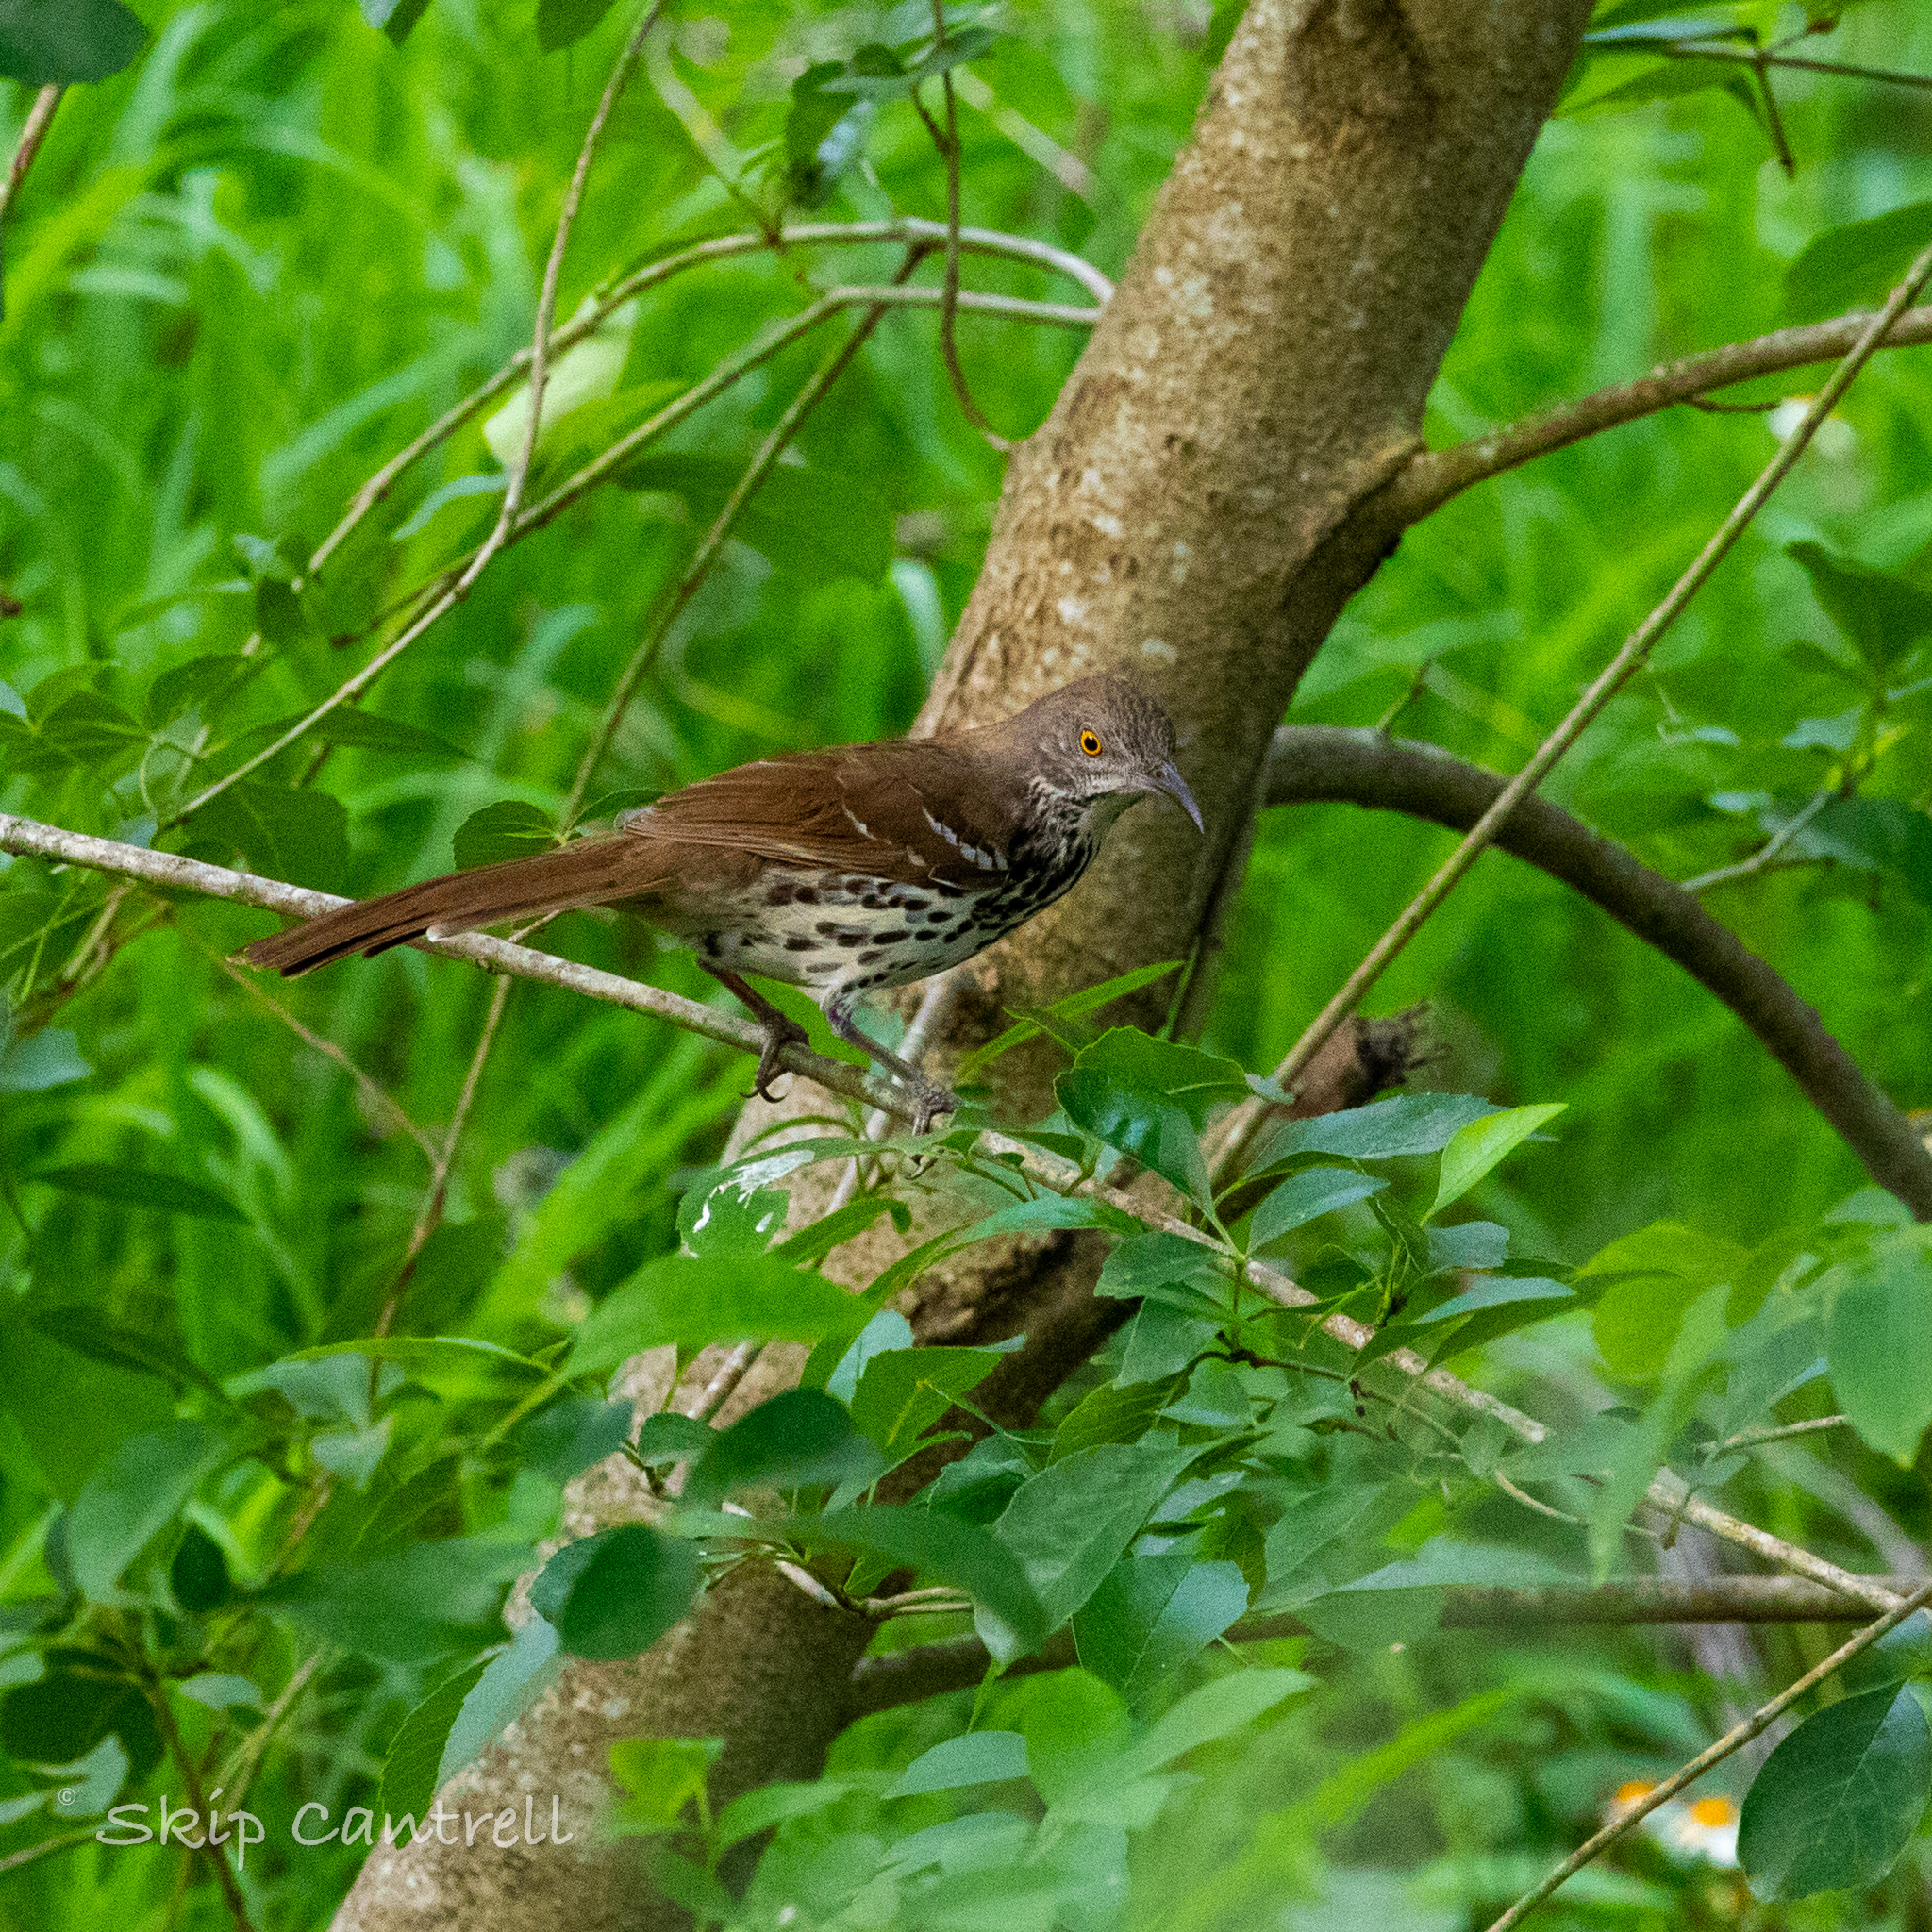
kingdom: Animalia
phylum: Chordata
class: Aves
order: Passeriformes
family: Mimidae
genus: Toxostoma
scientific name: Toxostoma longirostre
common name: Long-billed thrasher
